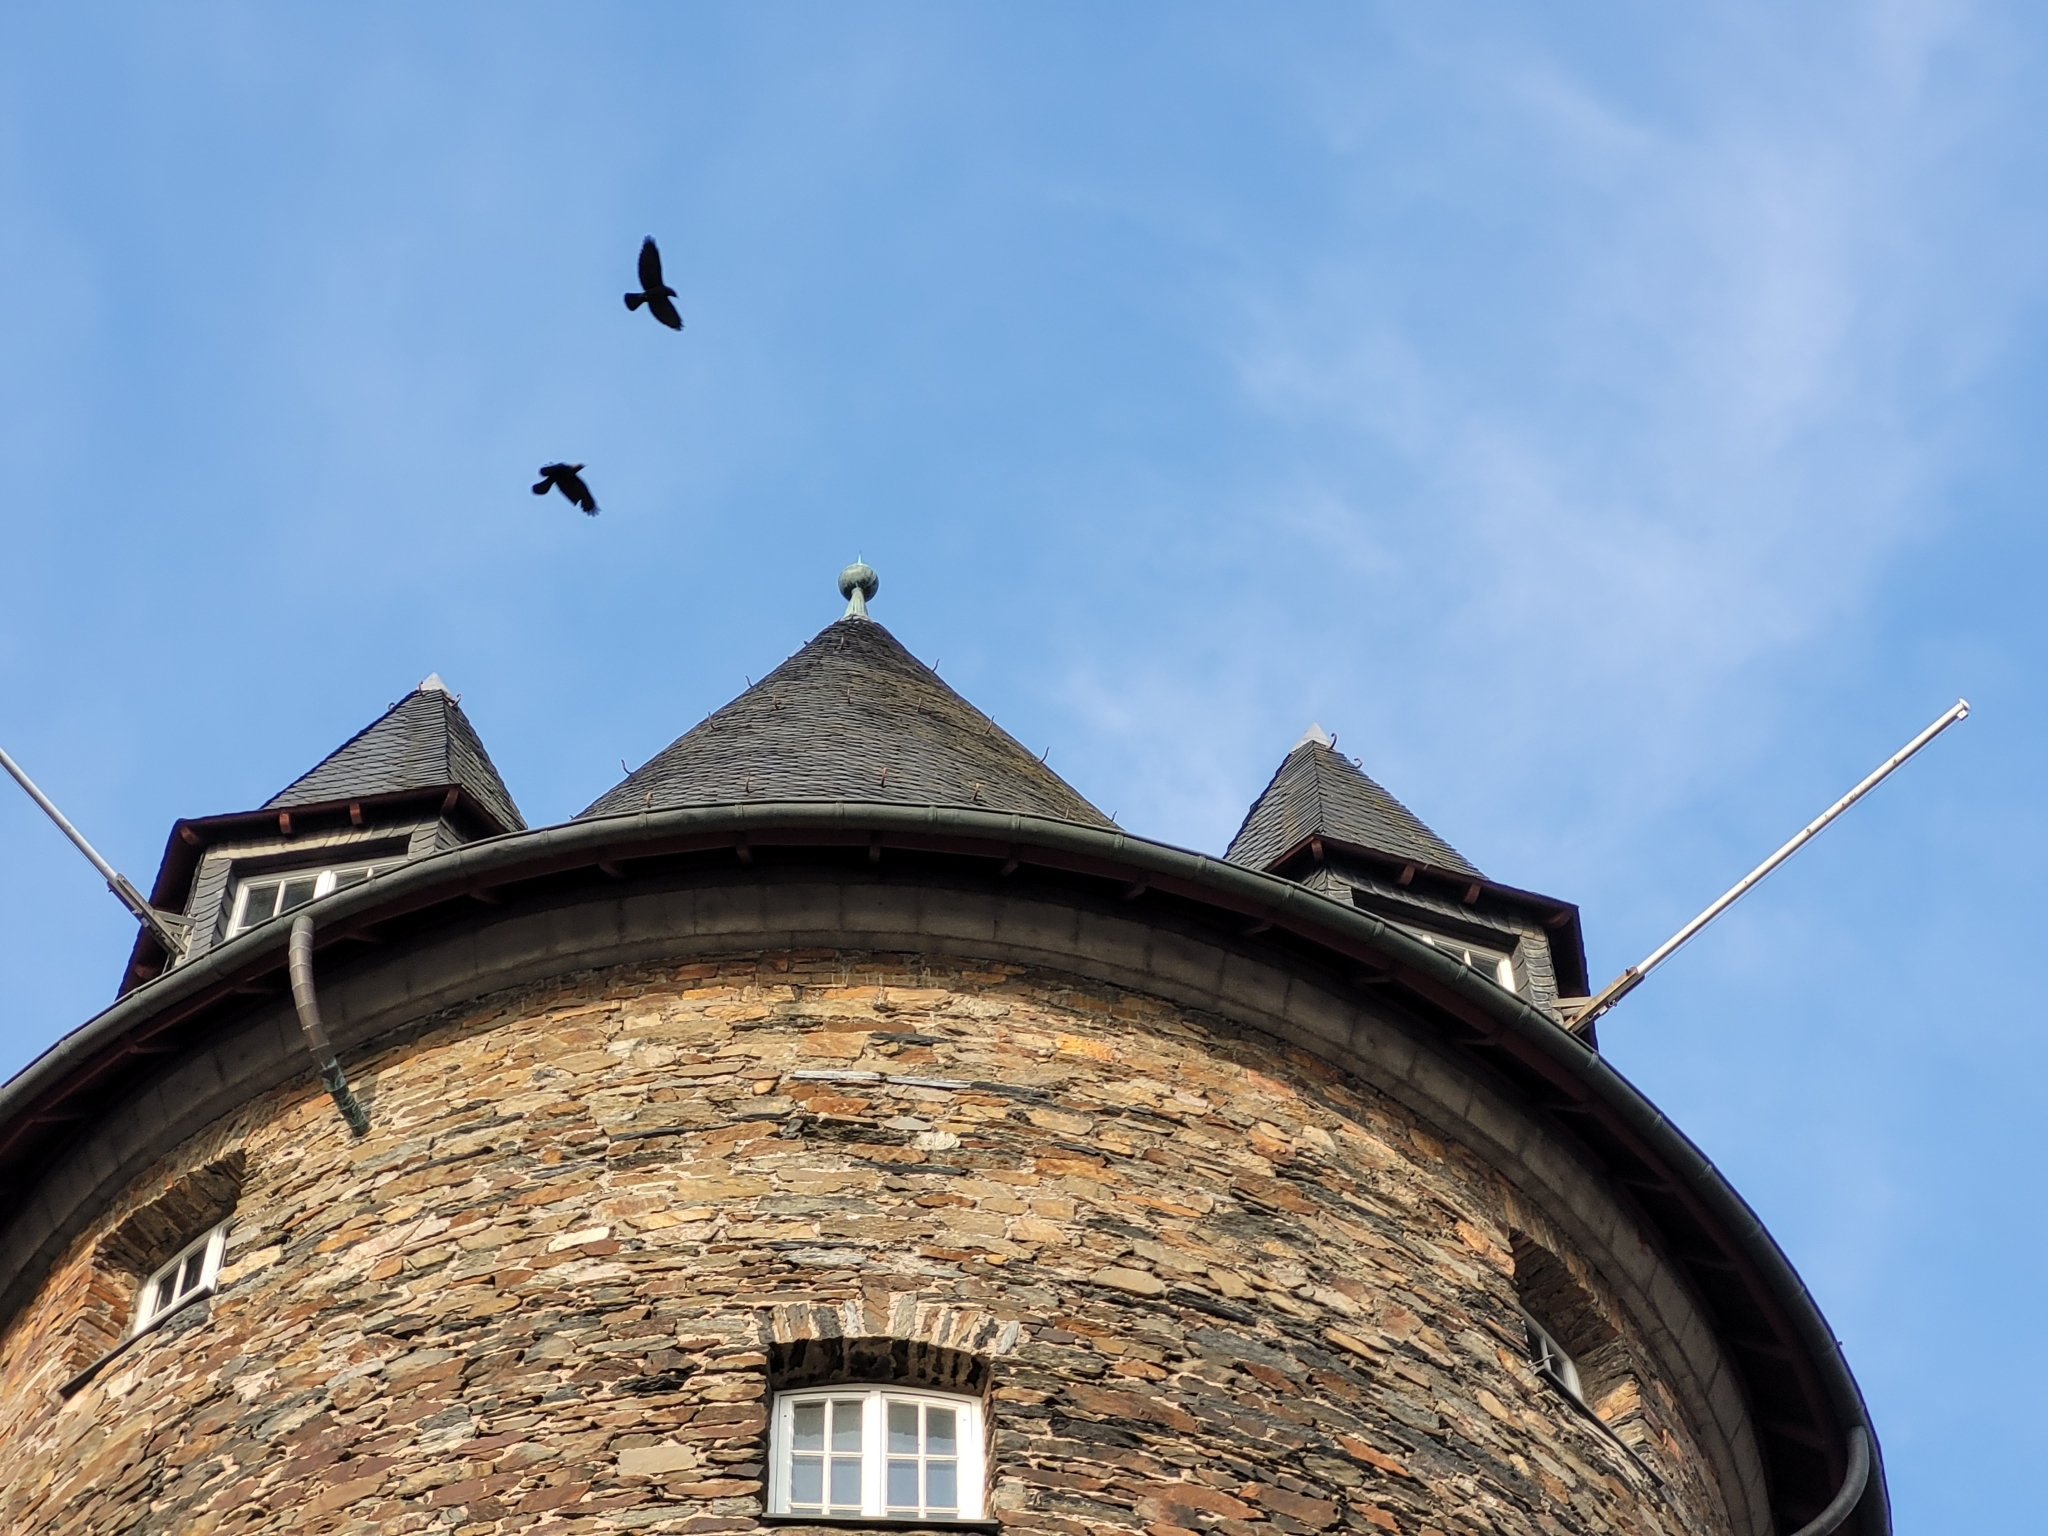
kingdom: Animalia
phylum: Chordata
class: Aves
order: Passeriformes
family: Corvidae
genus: Coloeus
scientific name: Coloeus monedula
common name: Western jackdaw
